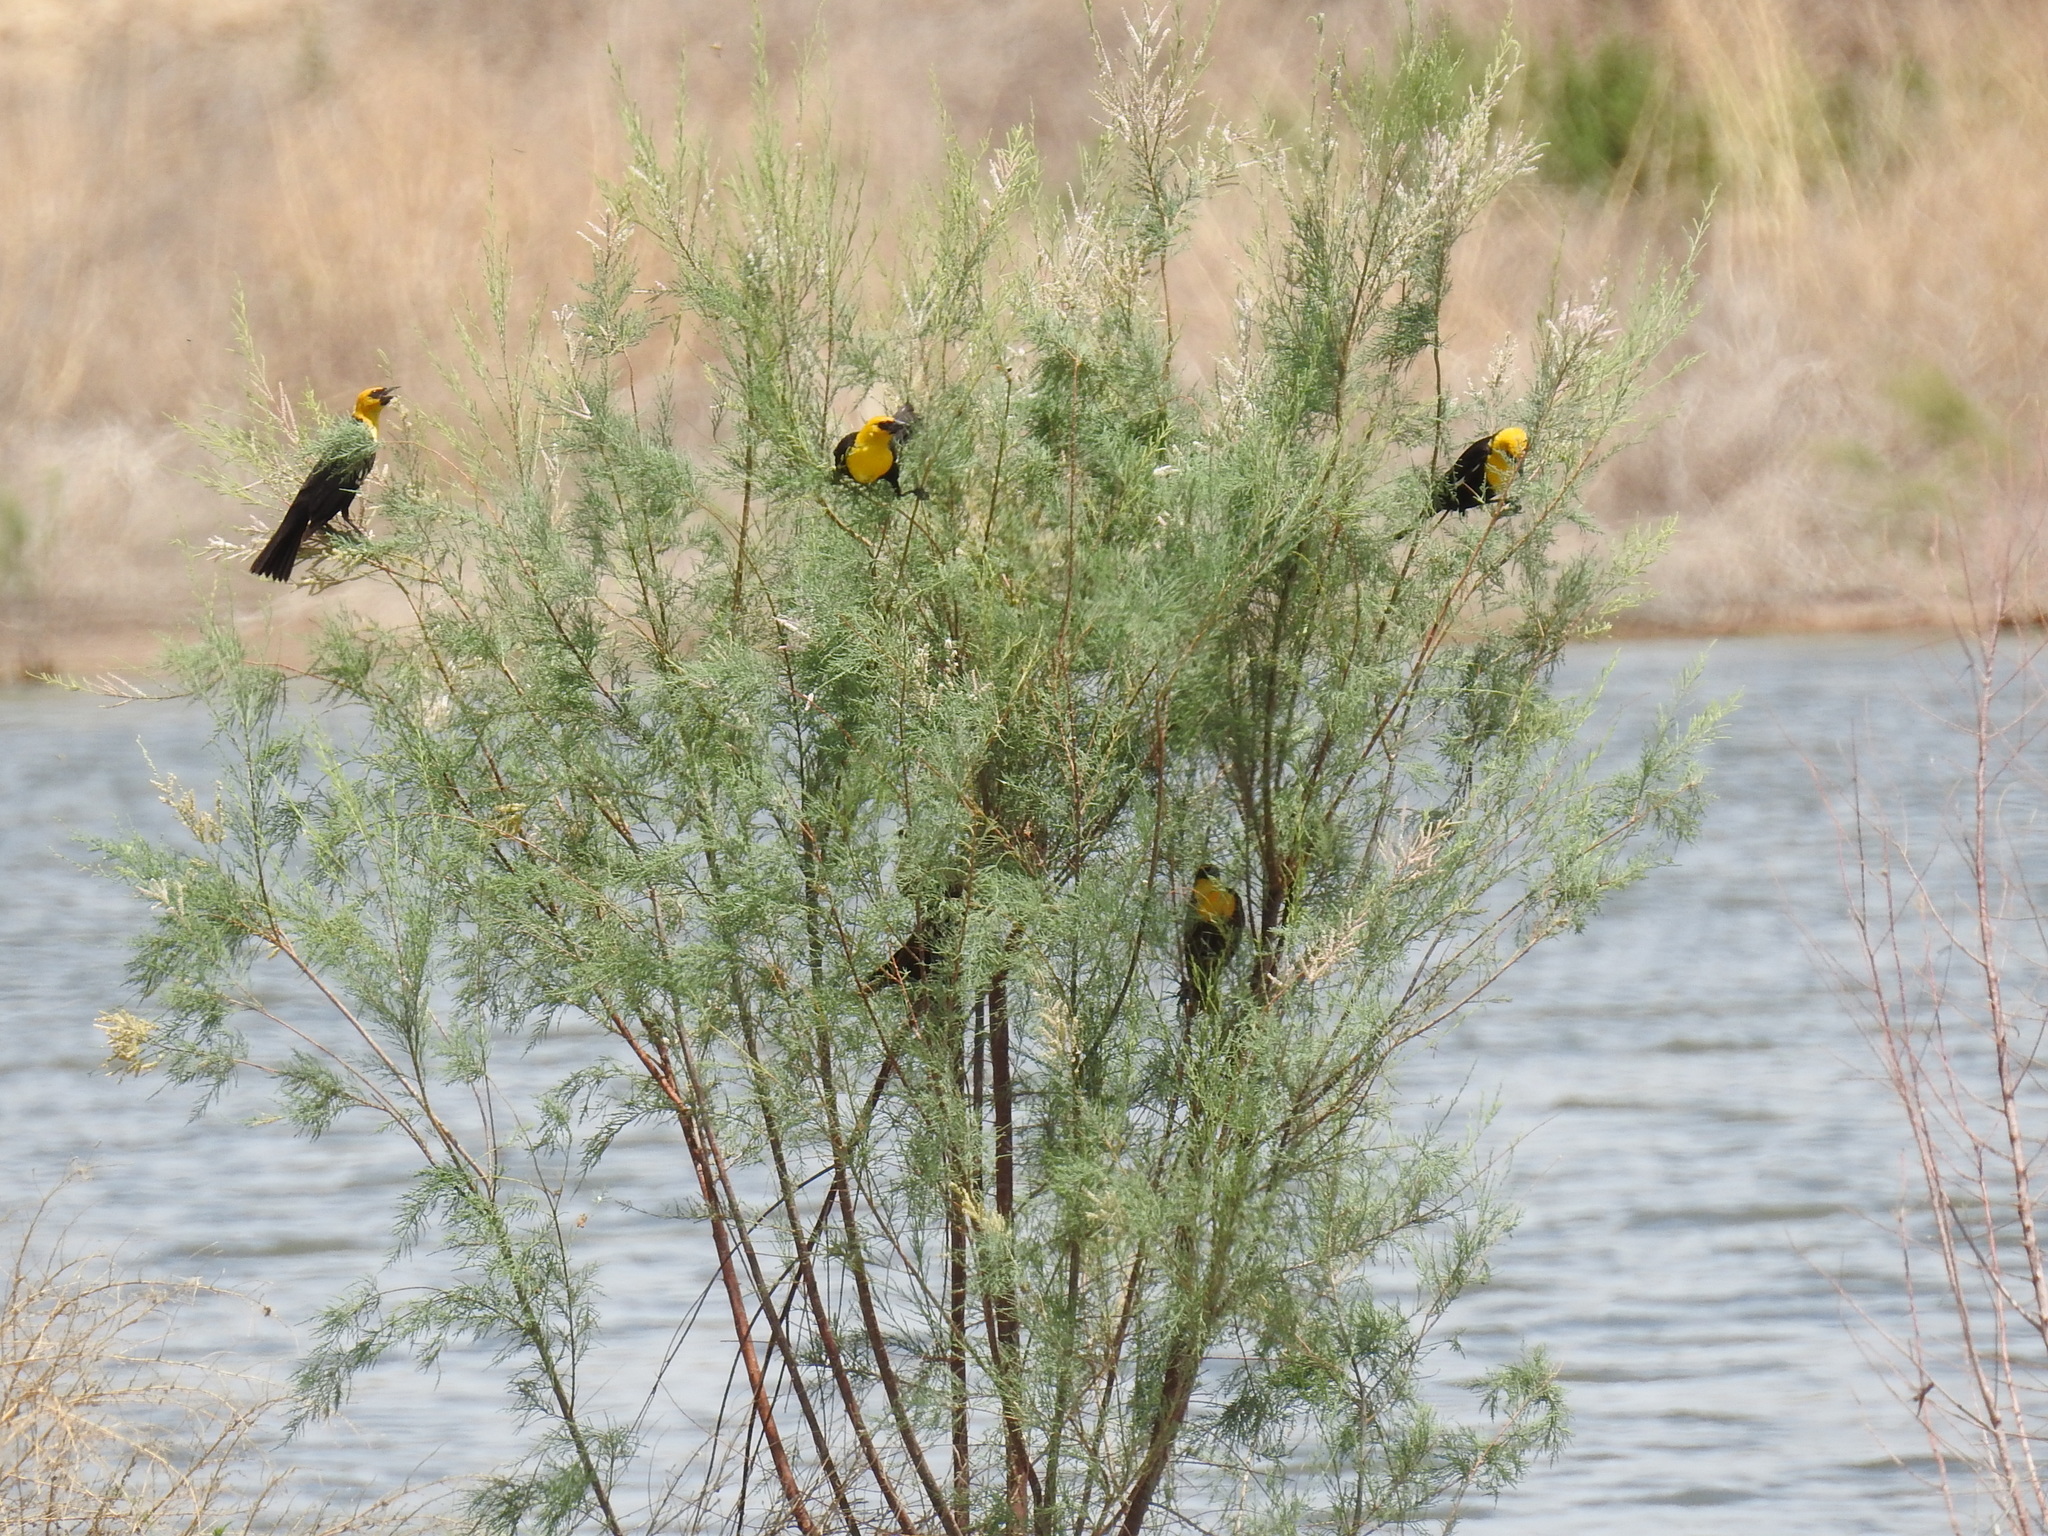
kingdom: Animalia
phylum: Chordata
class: Aves
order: Passeriformes
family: Icteridae
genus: Xanthocephalus
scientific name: Xanthocephalus xanthocephalus
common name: Yellow-headed blackbird
